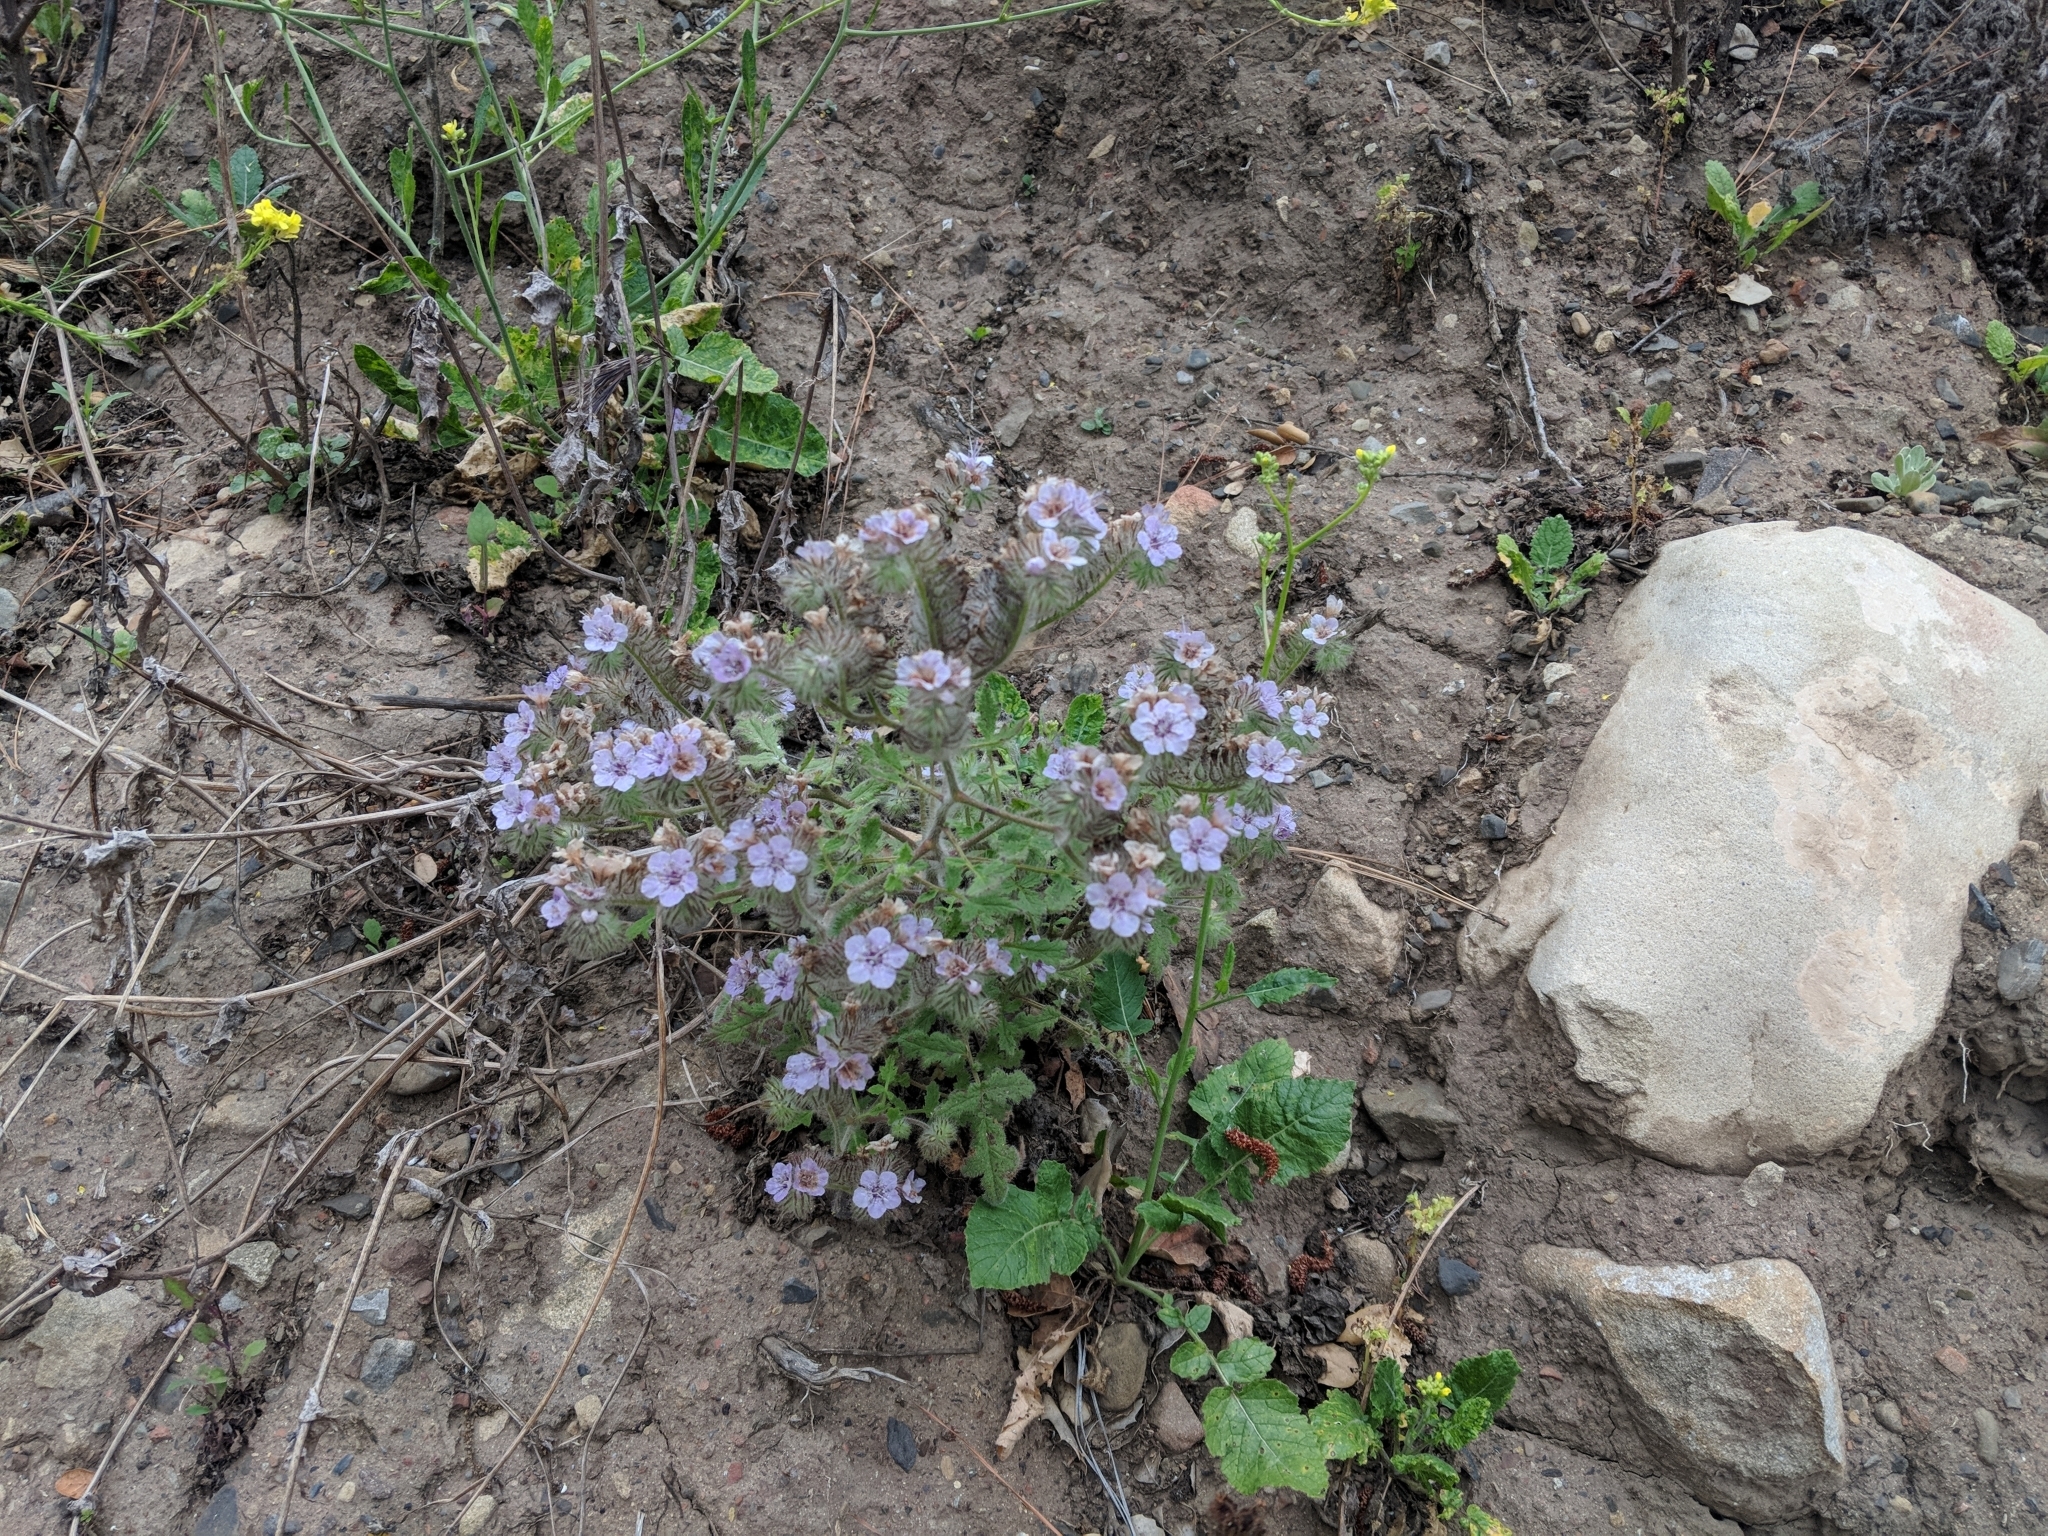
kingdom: Plantae
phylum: Tracheophyta
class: Magnoliopsida
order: Boraginales
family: Hydrophyllaceae
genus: Phacelia
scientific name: Phacelia cicutaria
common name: Caterpillar phacelia
